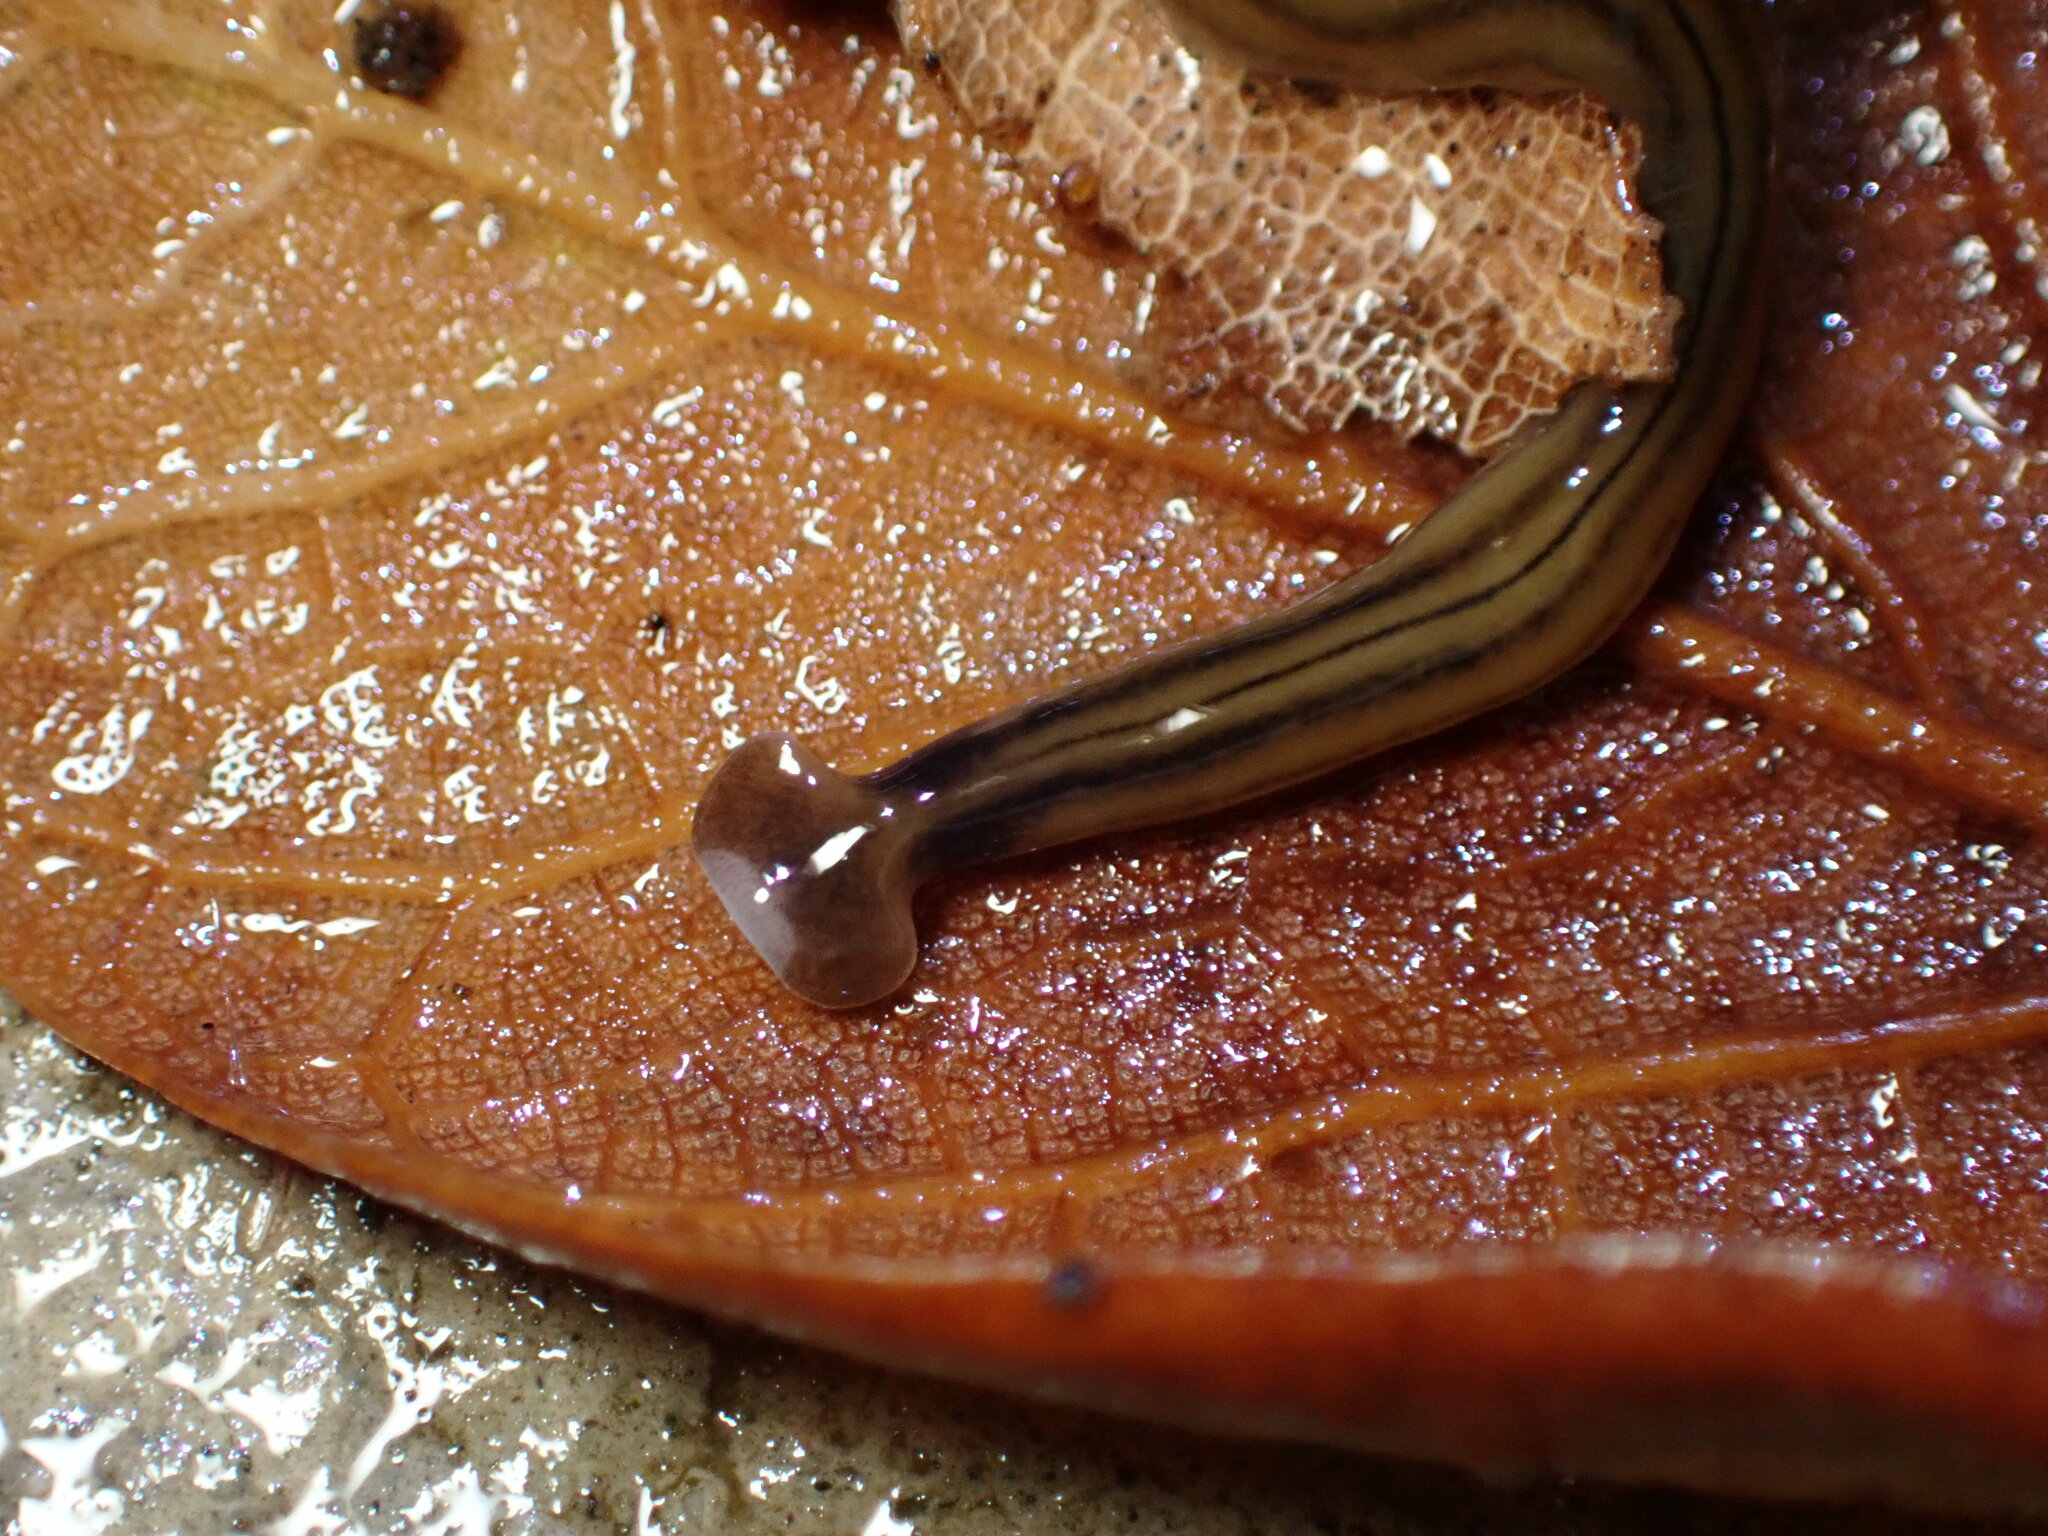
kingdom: Animalia
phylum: Platyhelminthes
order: Tricladida
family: Geoplanidae
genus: Bipalium
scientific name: Bipalium kewense
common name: Hammerhead flatworm
